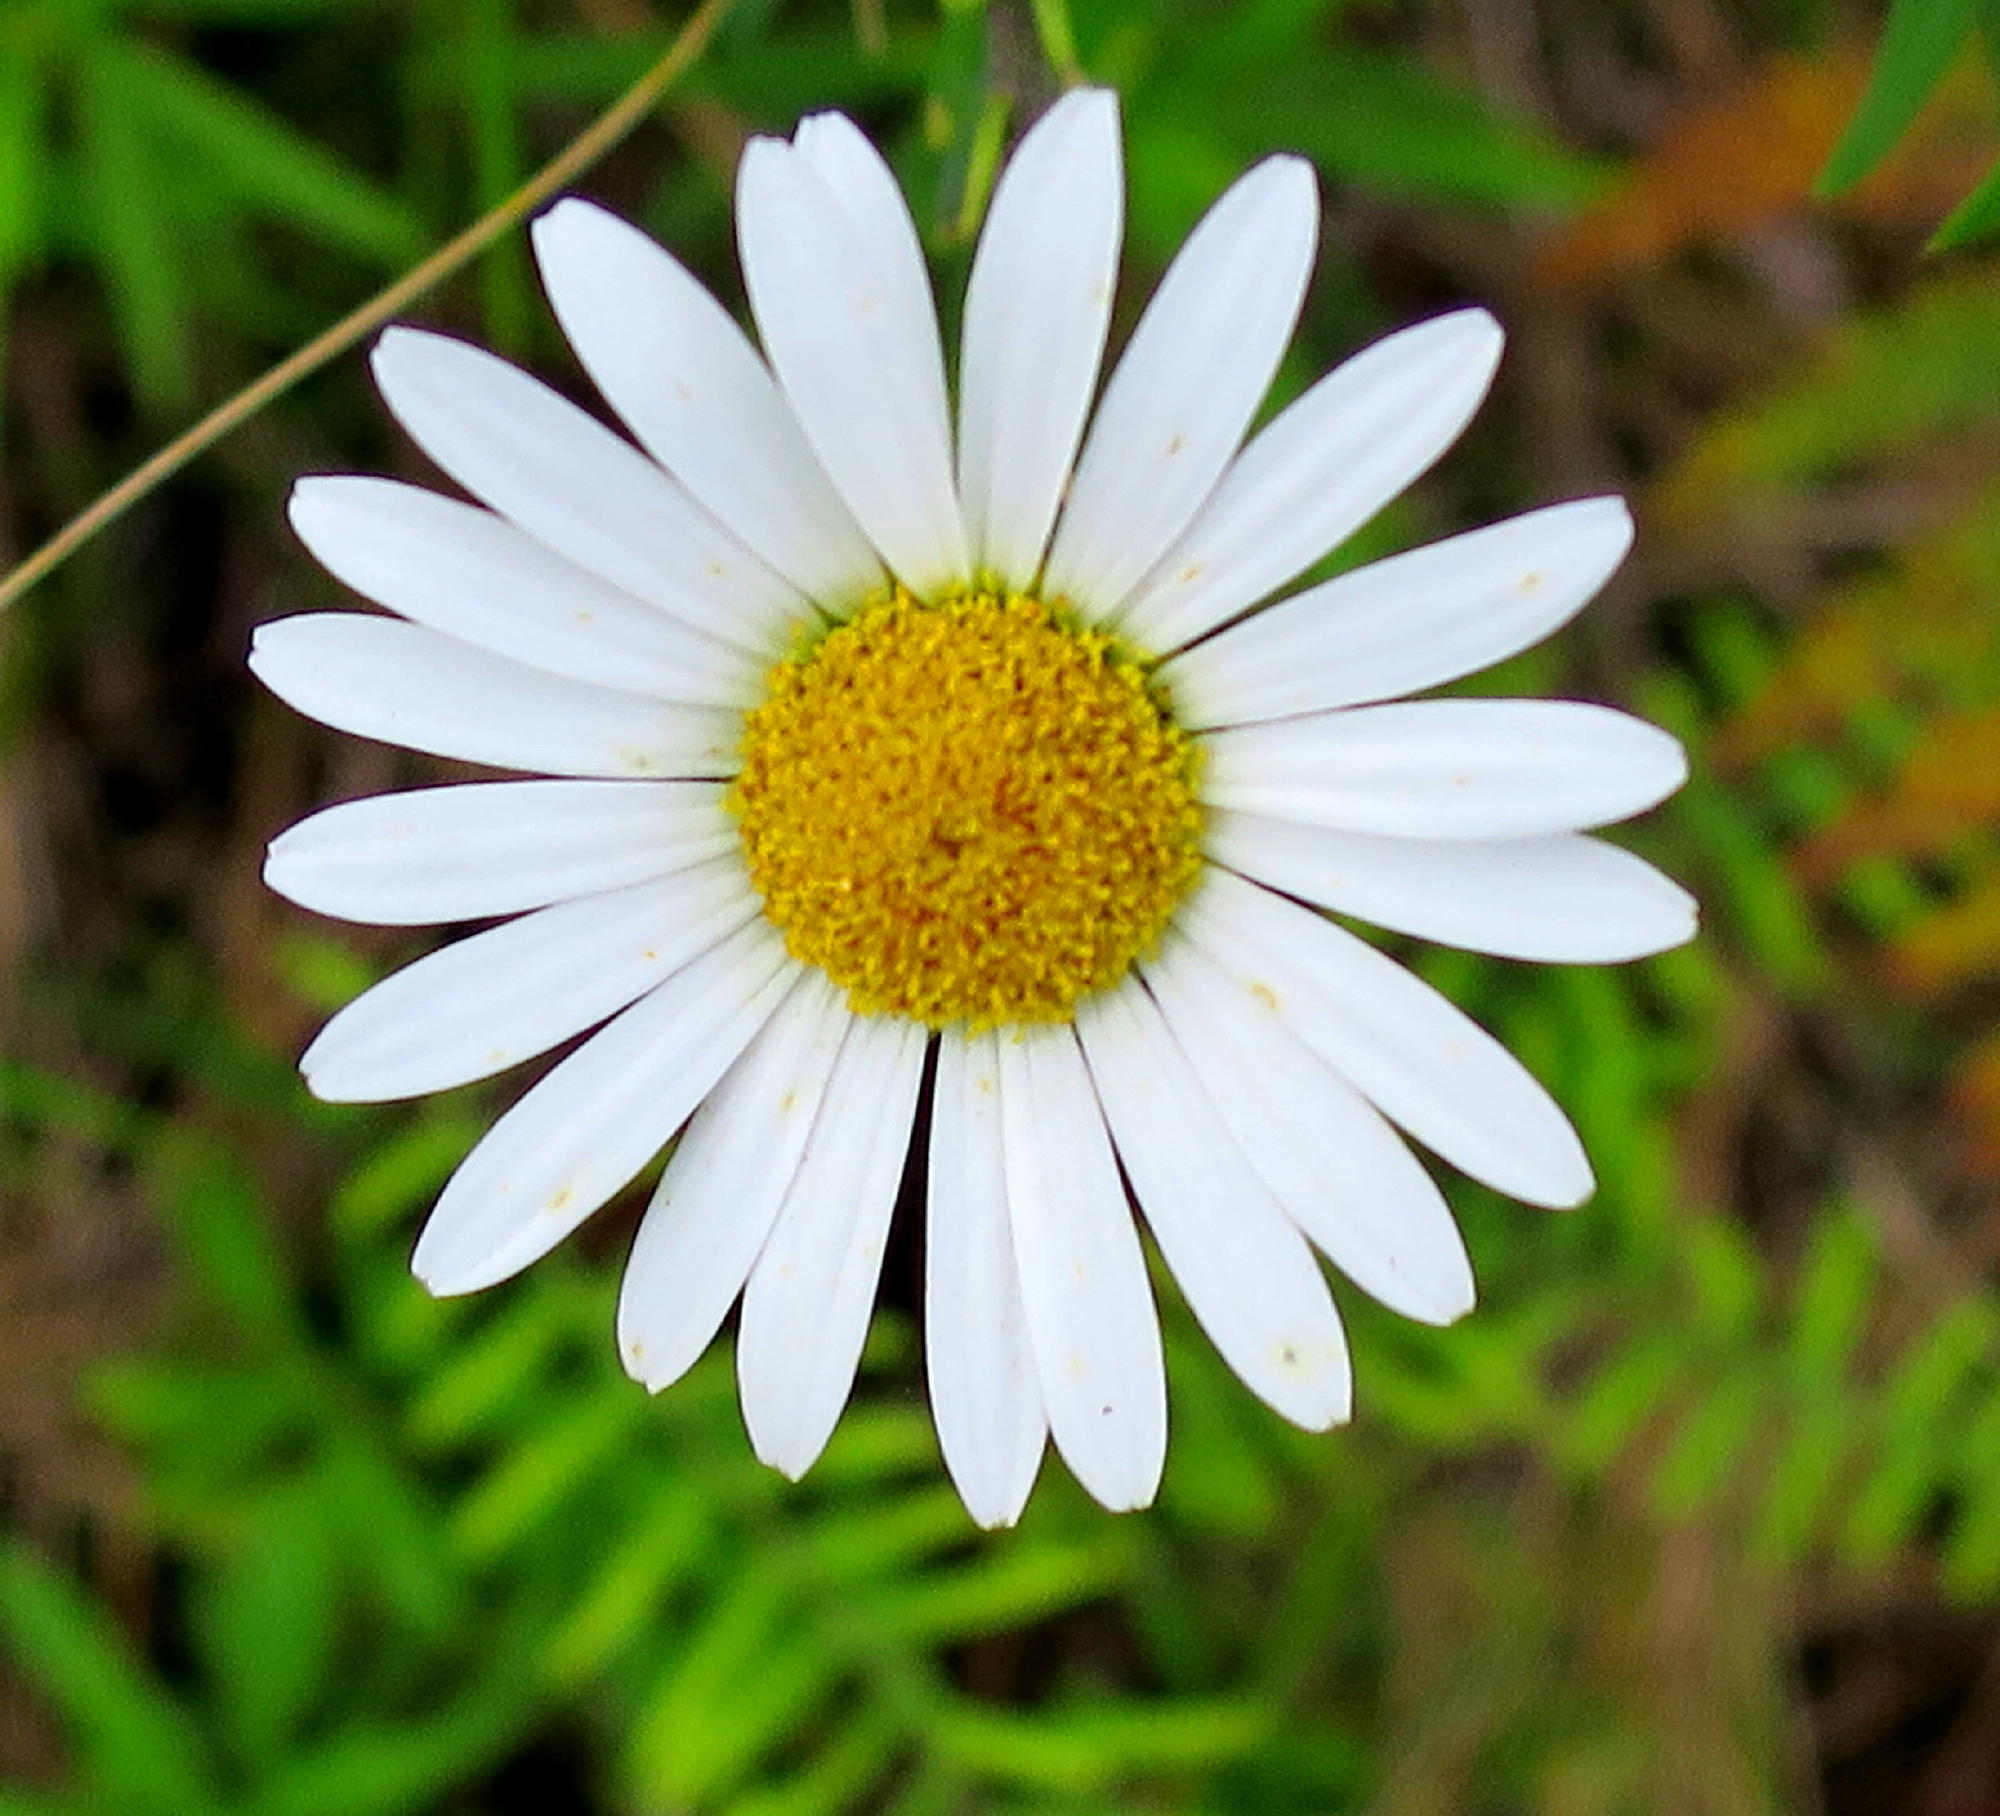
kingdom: Plantae
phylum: Tracheophyta
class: Magnoliopsida
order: Asterales
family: Asteraceae
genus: Osmitopsis
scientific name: Osmitopsis osmitoides
